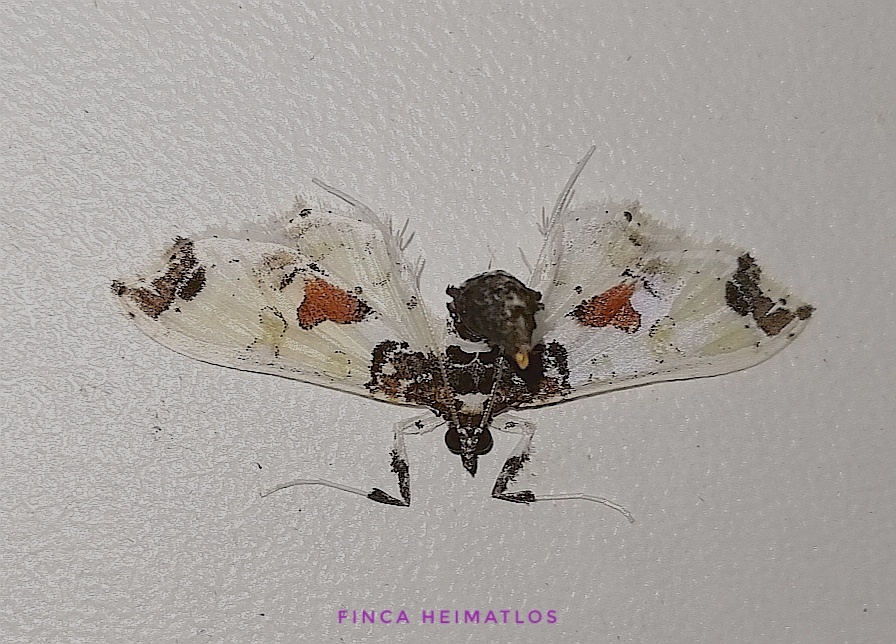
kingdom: Animalia
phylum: Arthropoda
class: Insecta
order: Lepidoptera
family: Crambidae
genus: Neoleucinodes
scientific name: Neoleucinodes elegantalis
